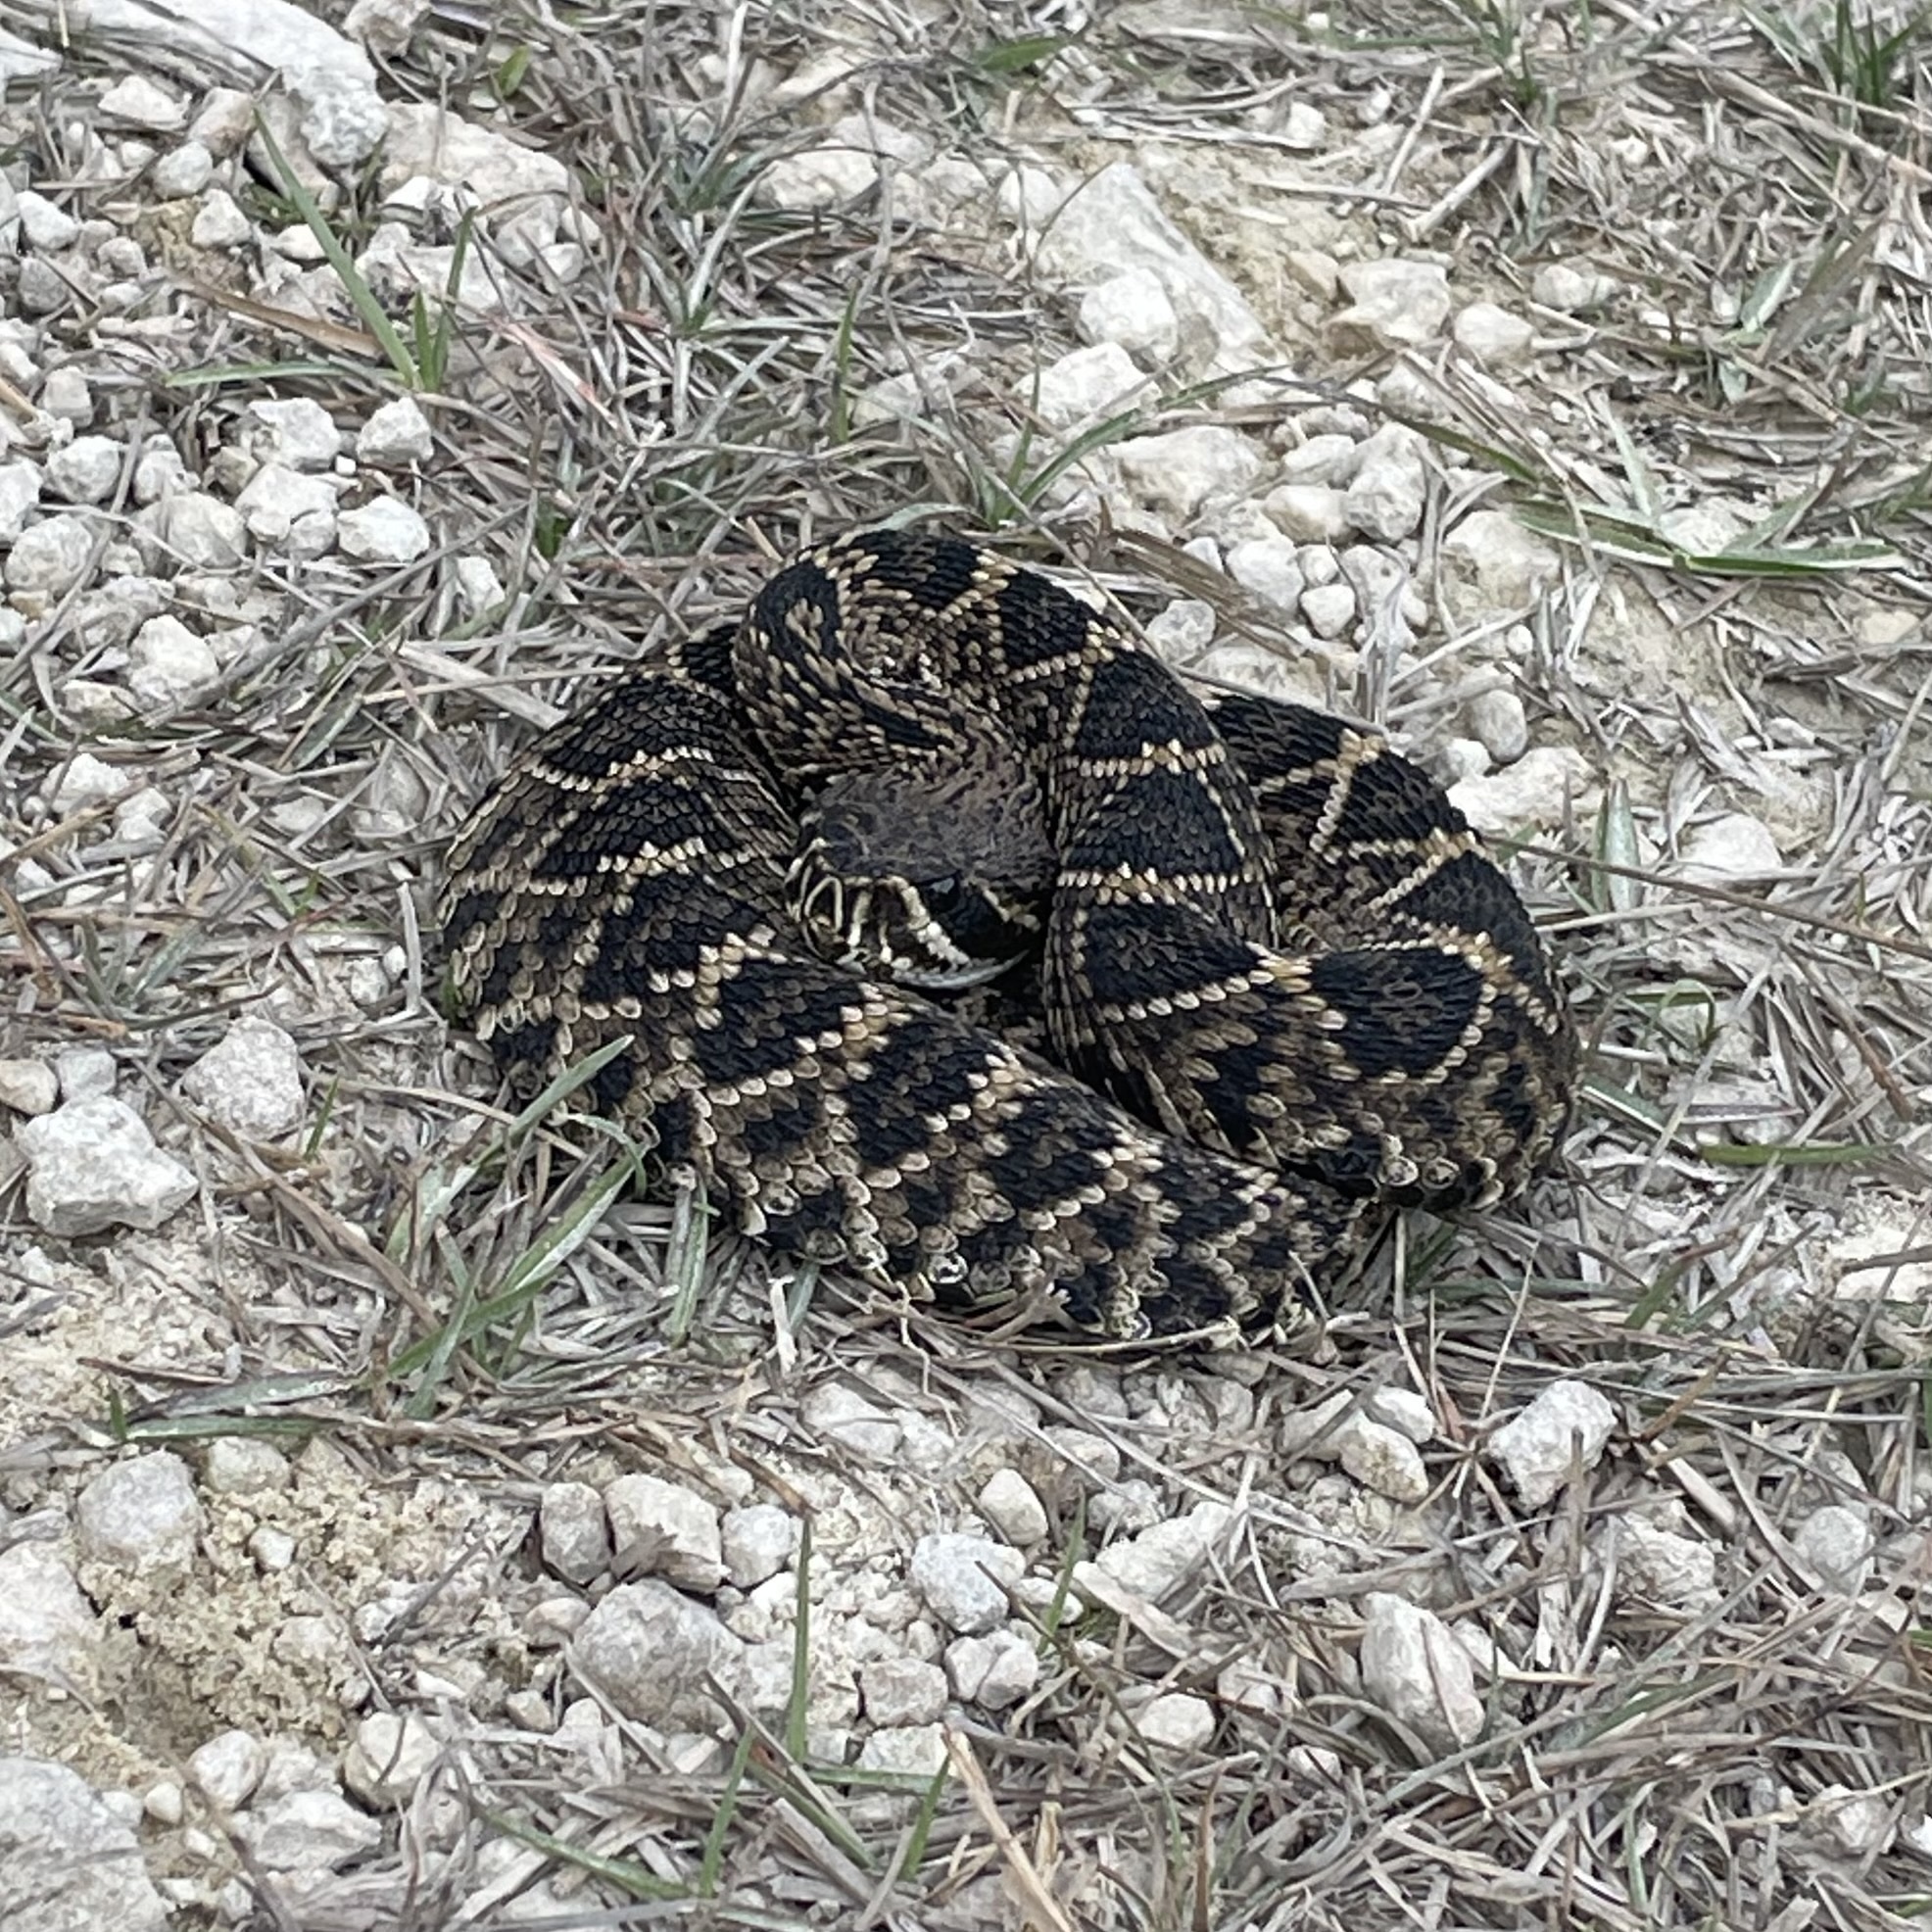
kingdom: Animalia
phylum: Chordata
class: Squamata
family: Viperidae
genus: Crotalus
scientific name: Crotalus adamanteus
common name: Eastern diamondback rattlesnake
